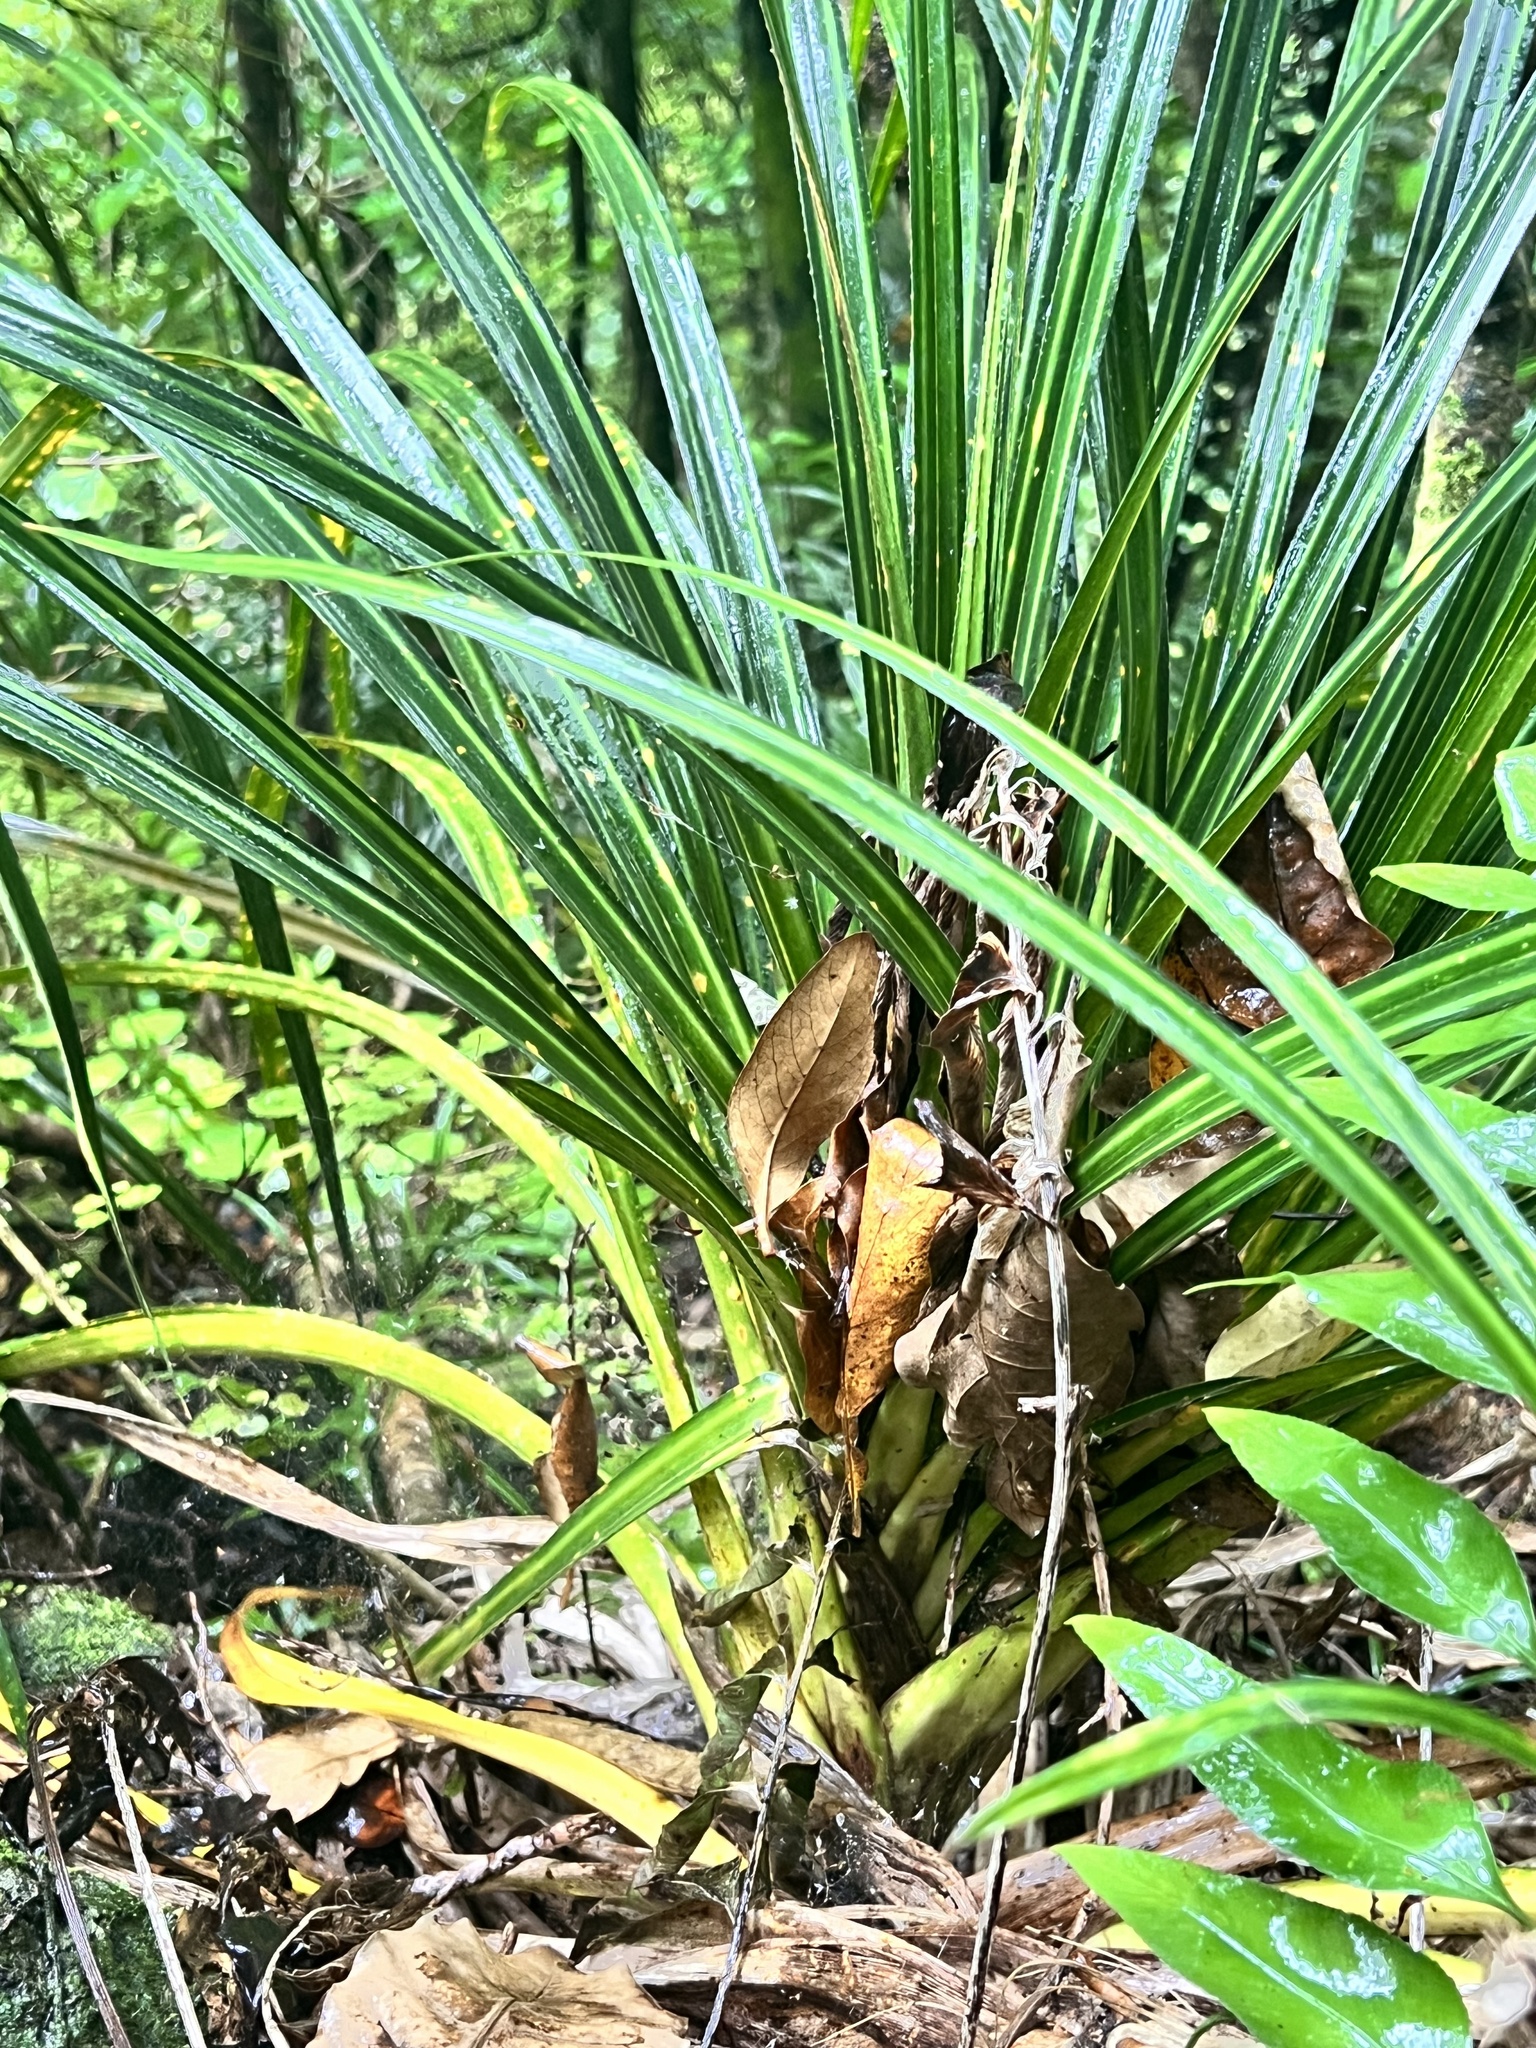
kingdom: Plantae
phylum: Tracheophyta
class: Liliopsida
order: Pandanales
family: Pandanaceae
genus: Freycinetia
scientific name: Freycinetia banksii
